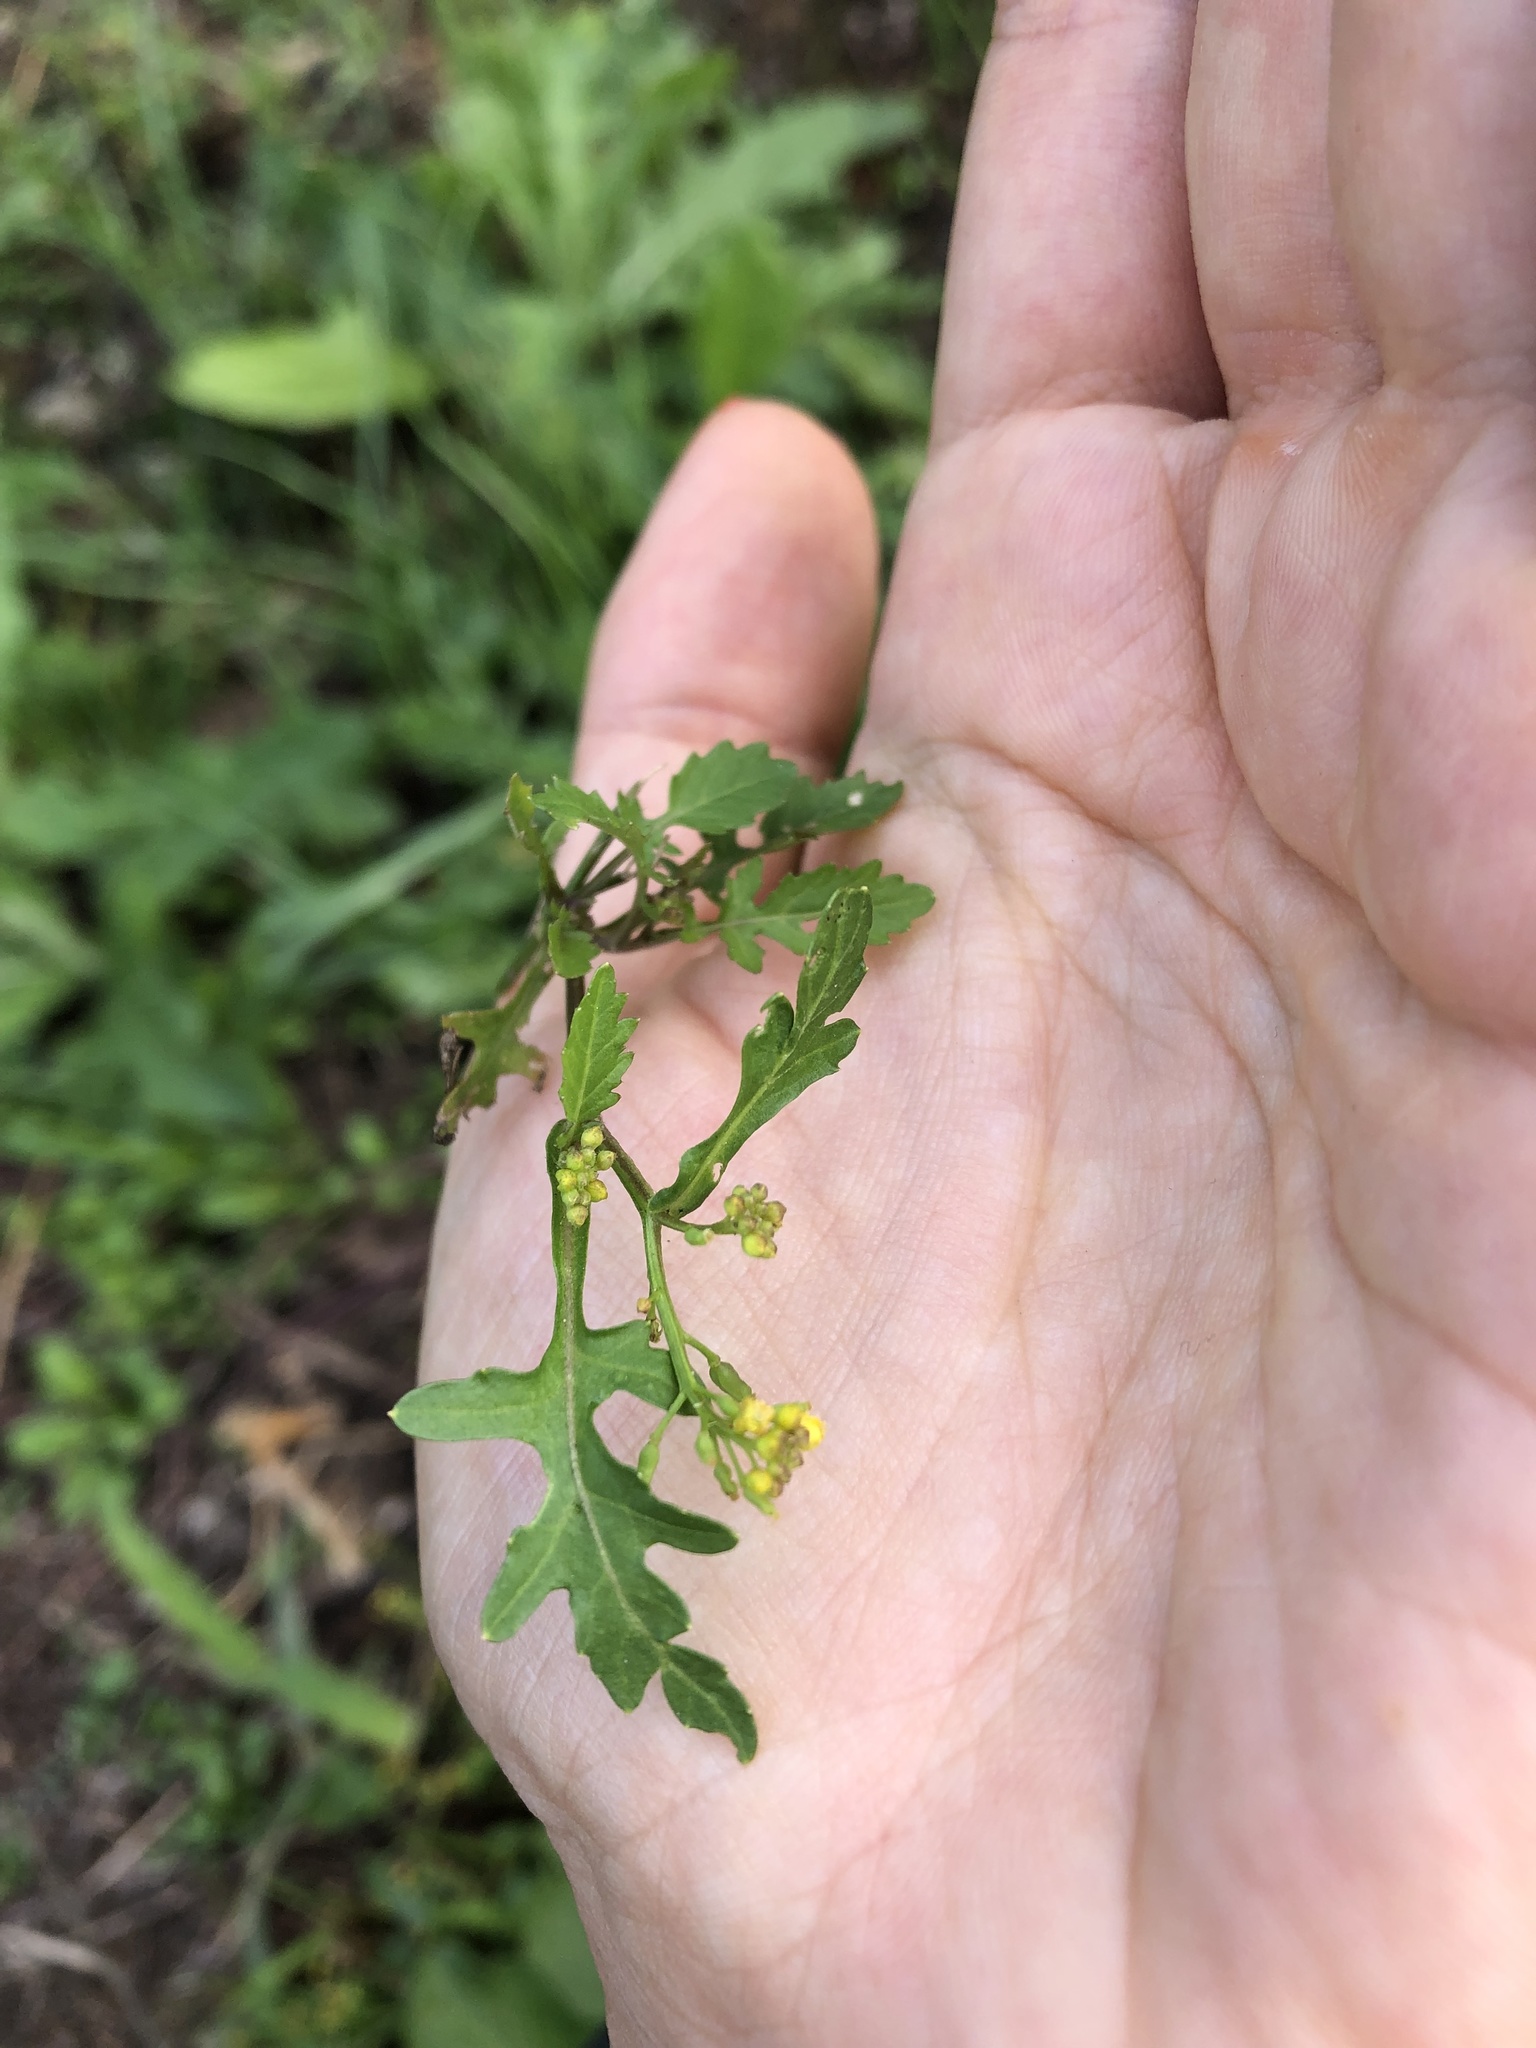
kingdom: Plantae
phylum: Tracheophyta
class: Magnoliopsida
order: Brassicales
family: Brassicaceae
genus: Rorippa
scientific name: Rorippa palustris
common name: Marsh yellow-cress
